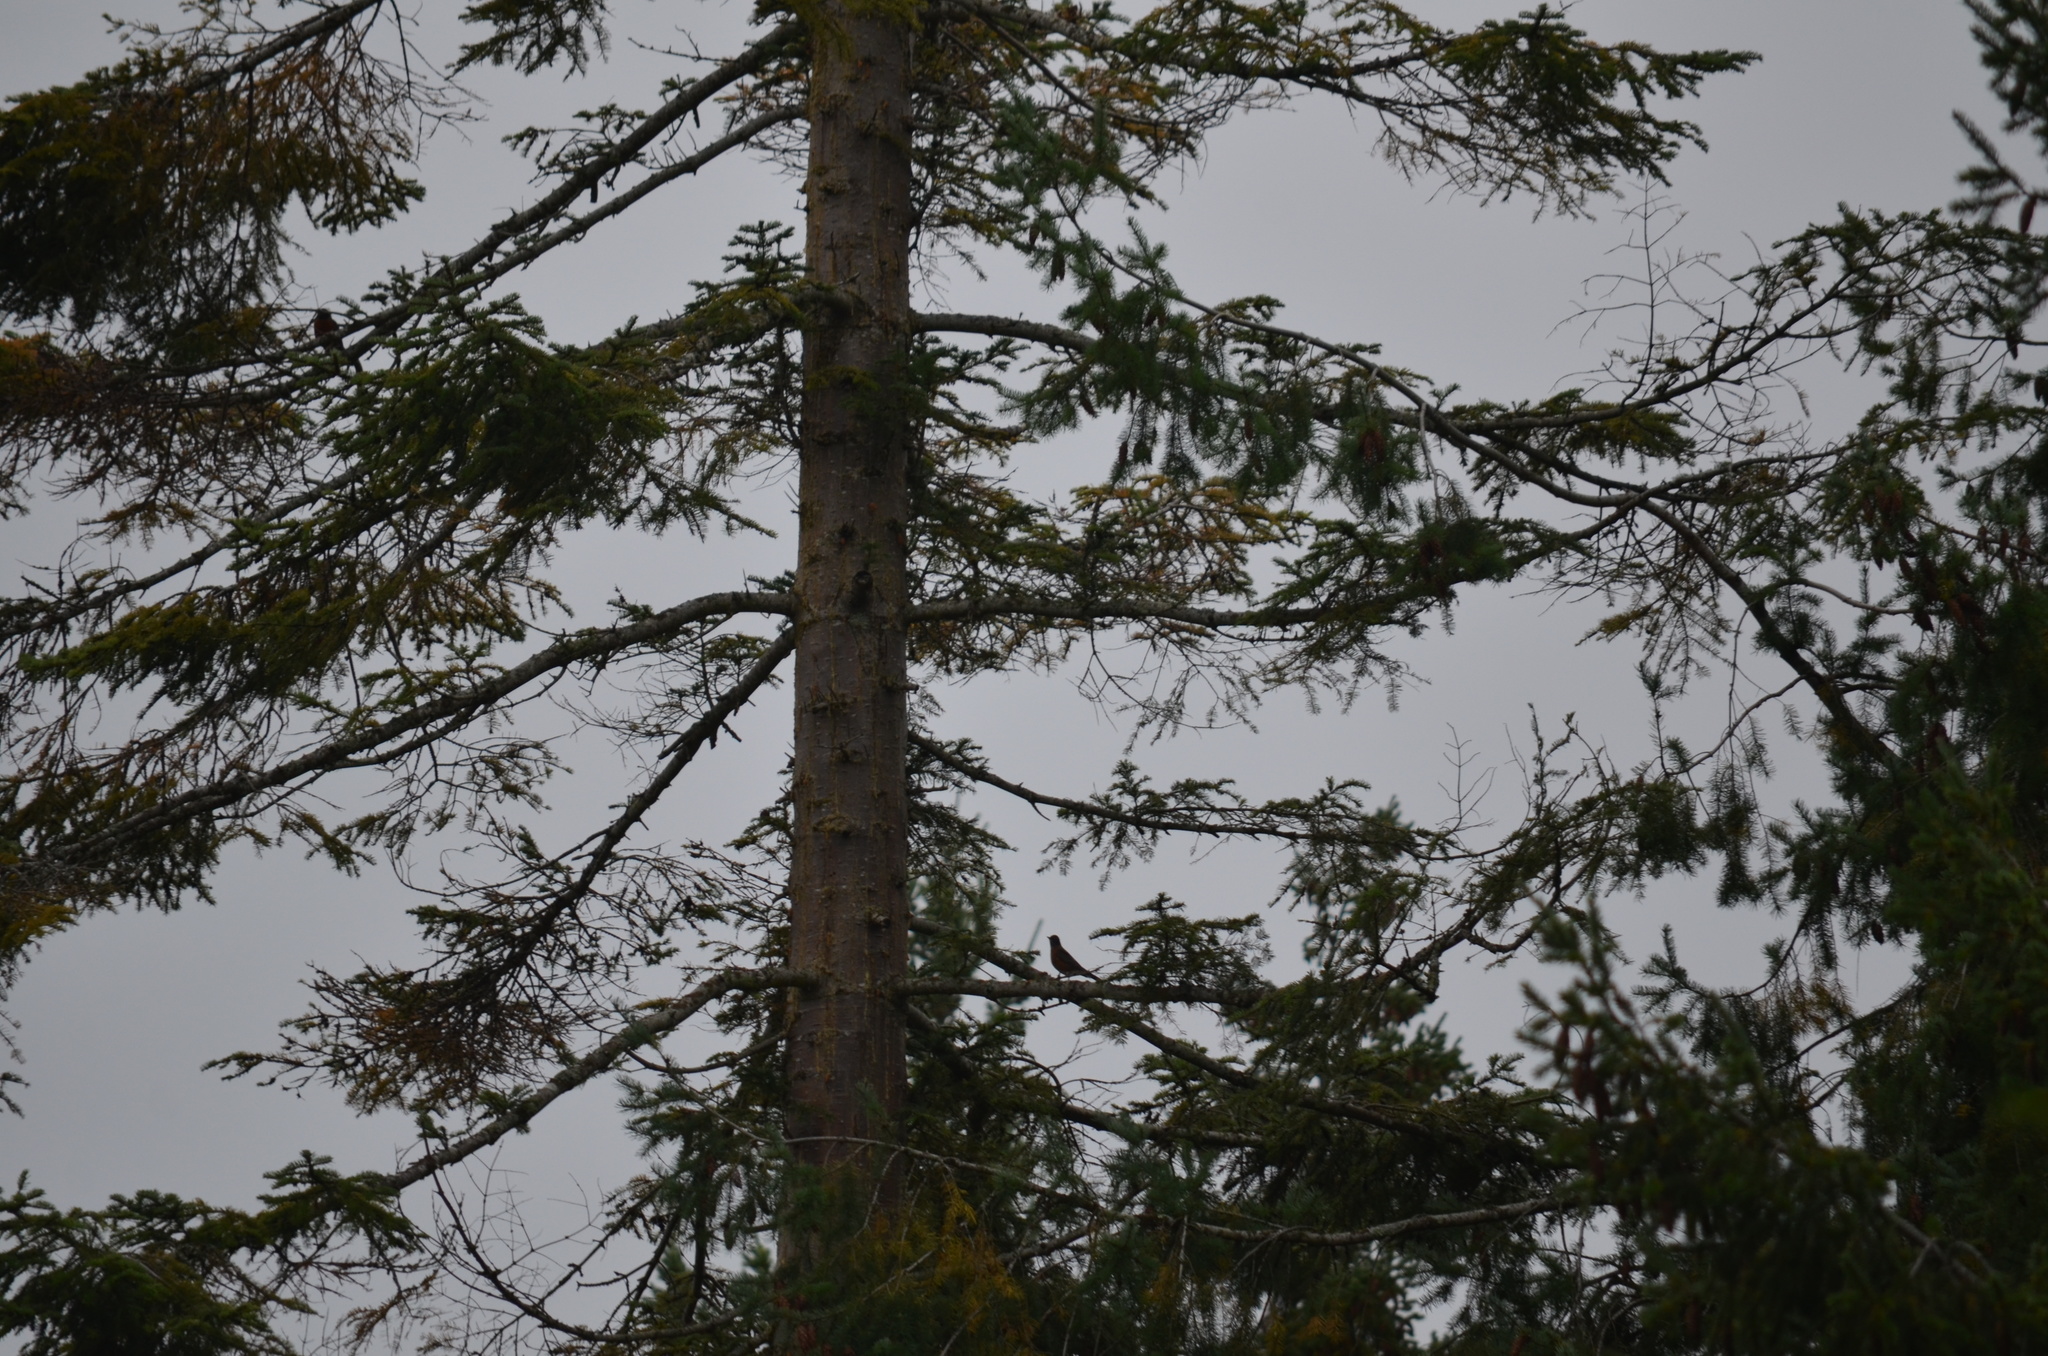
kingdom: Animalia
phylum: Chordata
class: Aves
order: Passeriformes
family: Turdidae
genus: Turdus
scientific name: Turdus migratorius
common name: American robin
